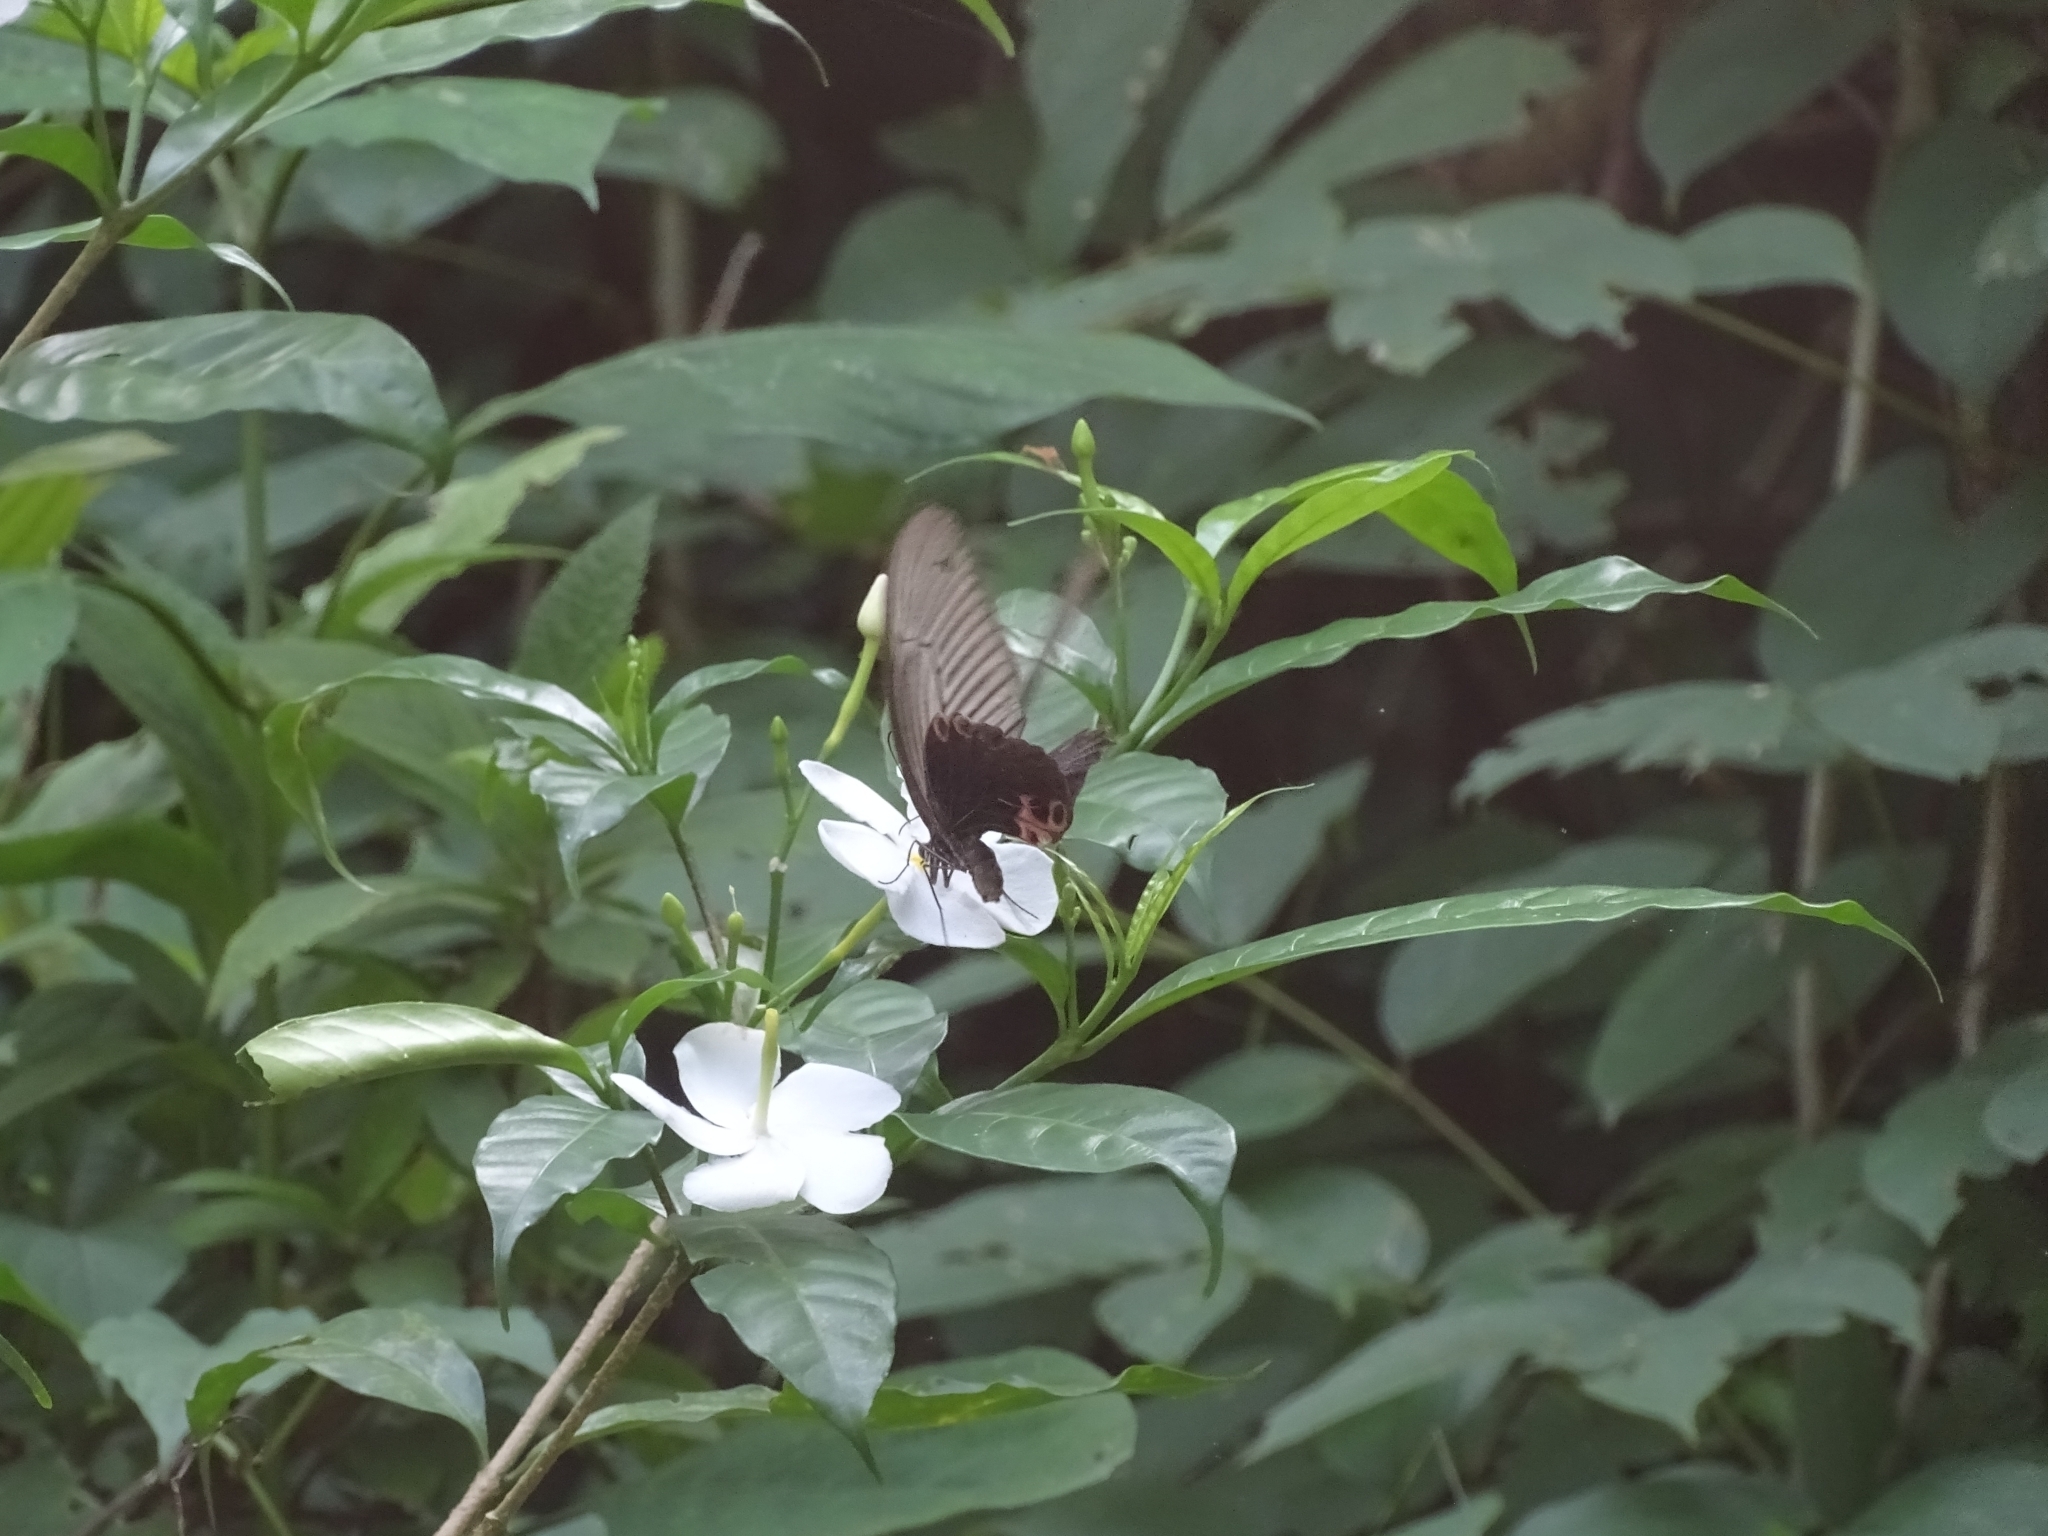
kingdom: Animalia
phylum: Arthropoda
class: Insecta
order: Lepidoptera
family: Papilionidae
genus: Papilio
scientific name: Papilio protenor
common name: Spangle
